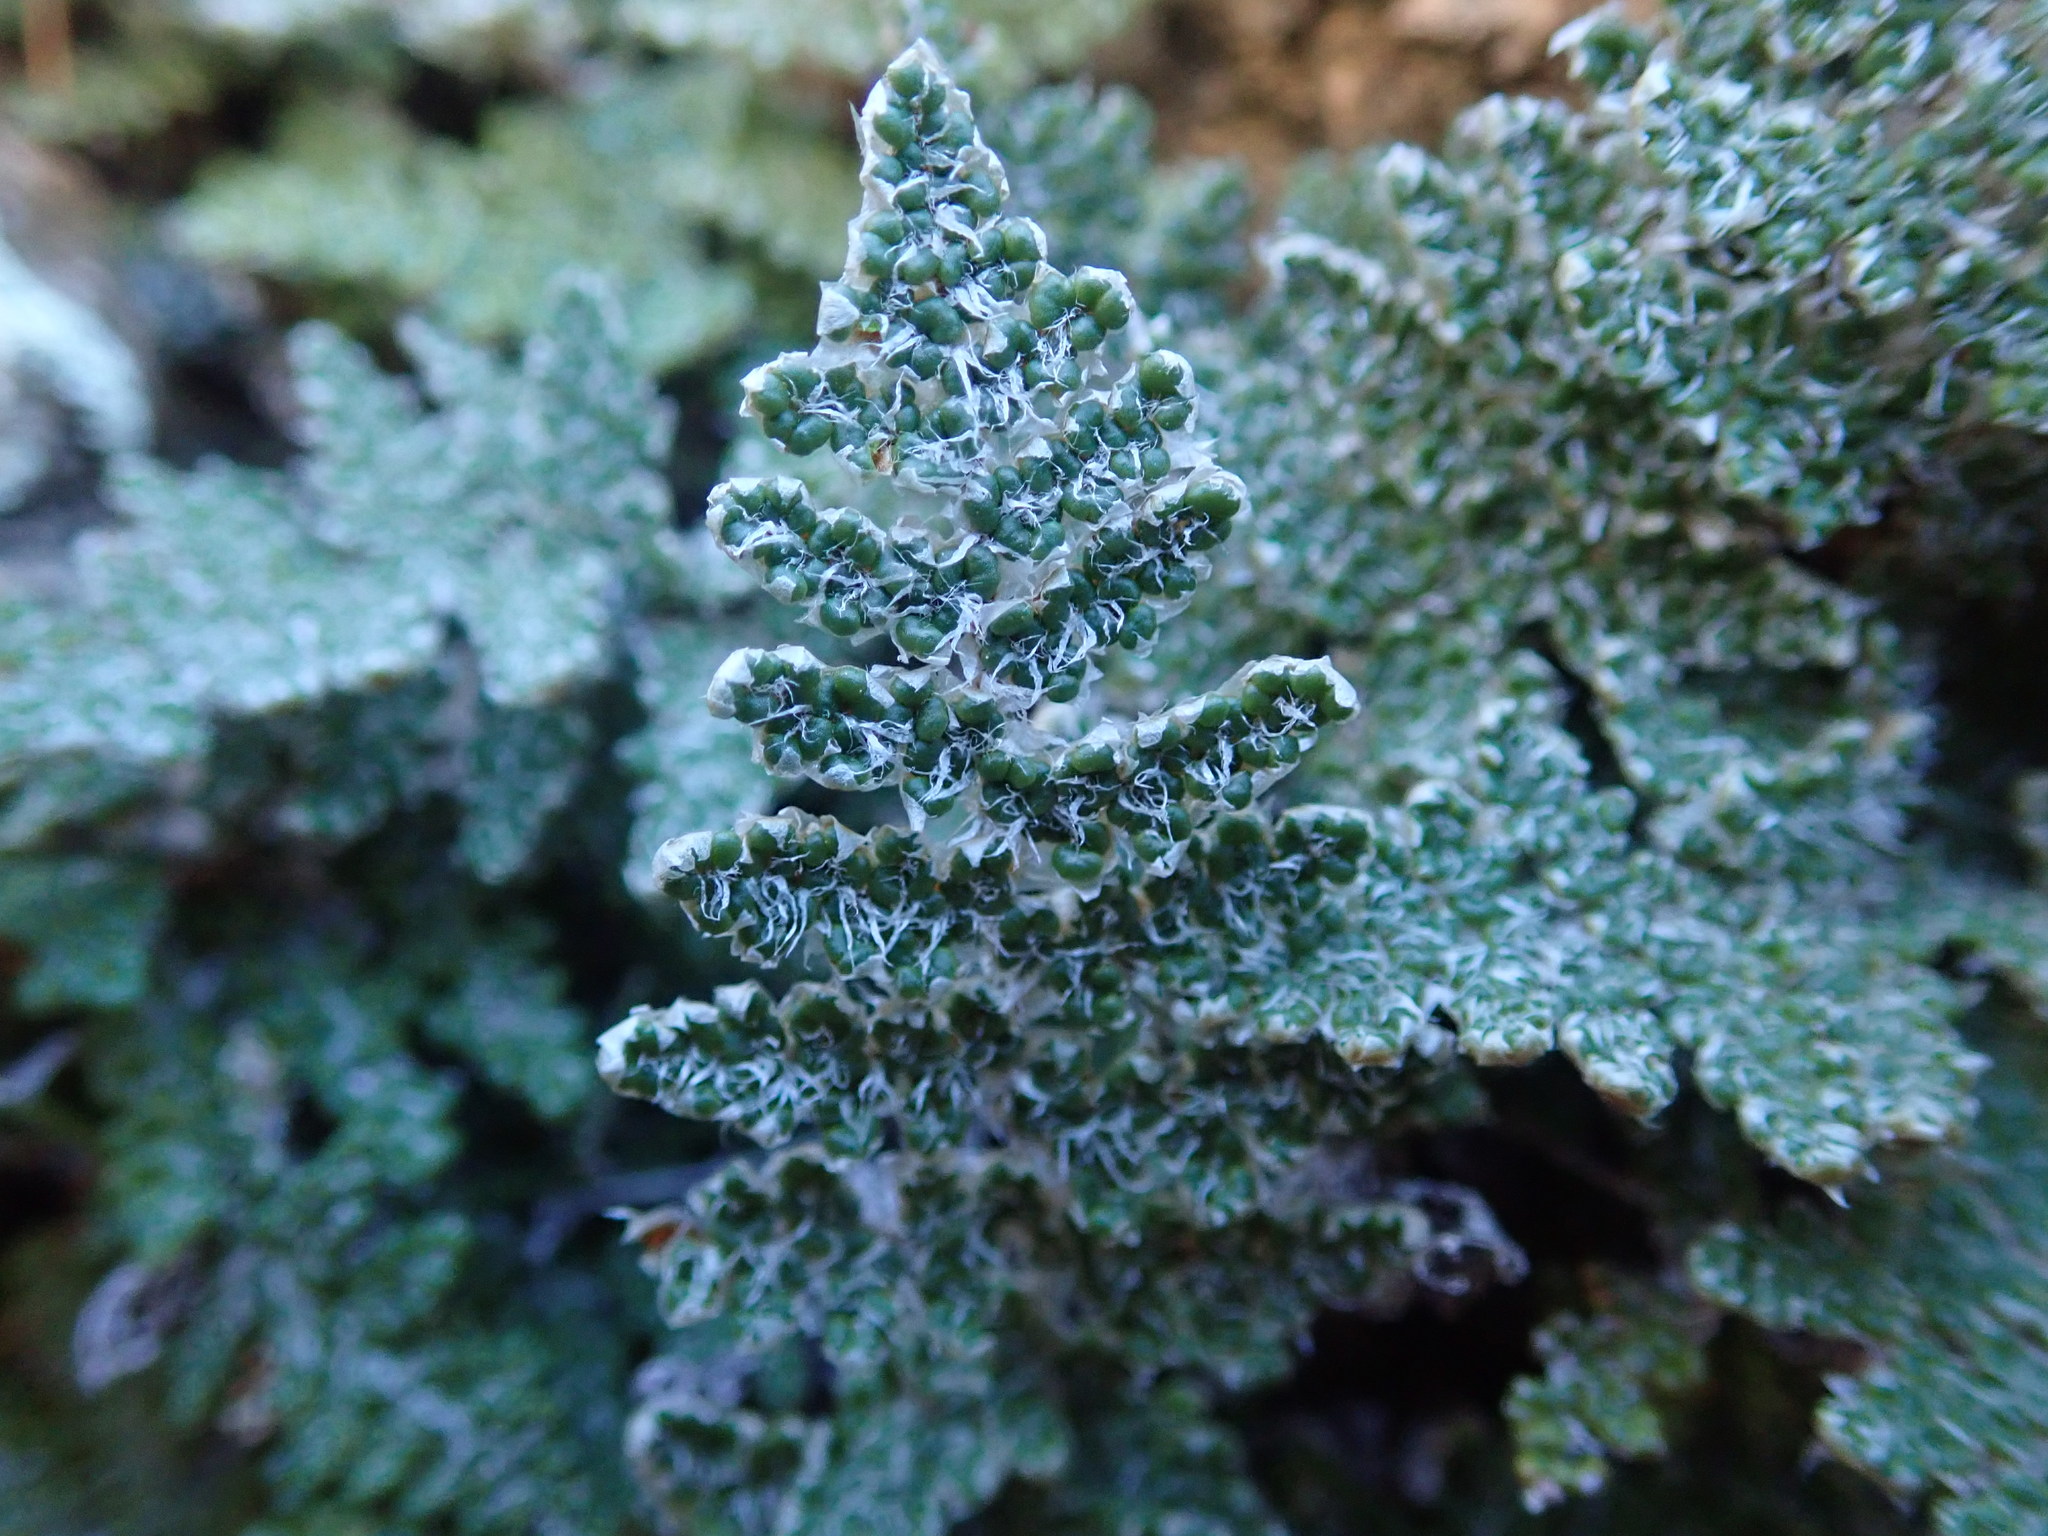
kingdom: Plantae
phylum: Tracheophyta
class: Polypodiopsida
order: Polypodiales
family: Pteridaceae
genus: Myriopteris
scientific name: Myriopteris covillei
